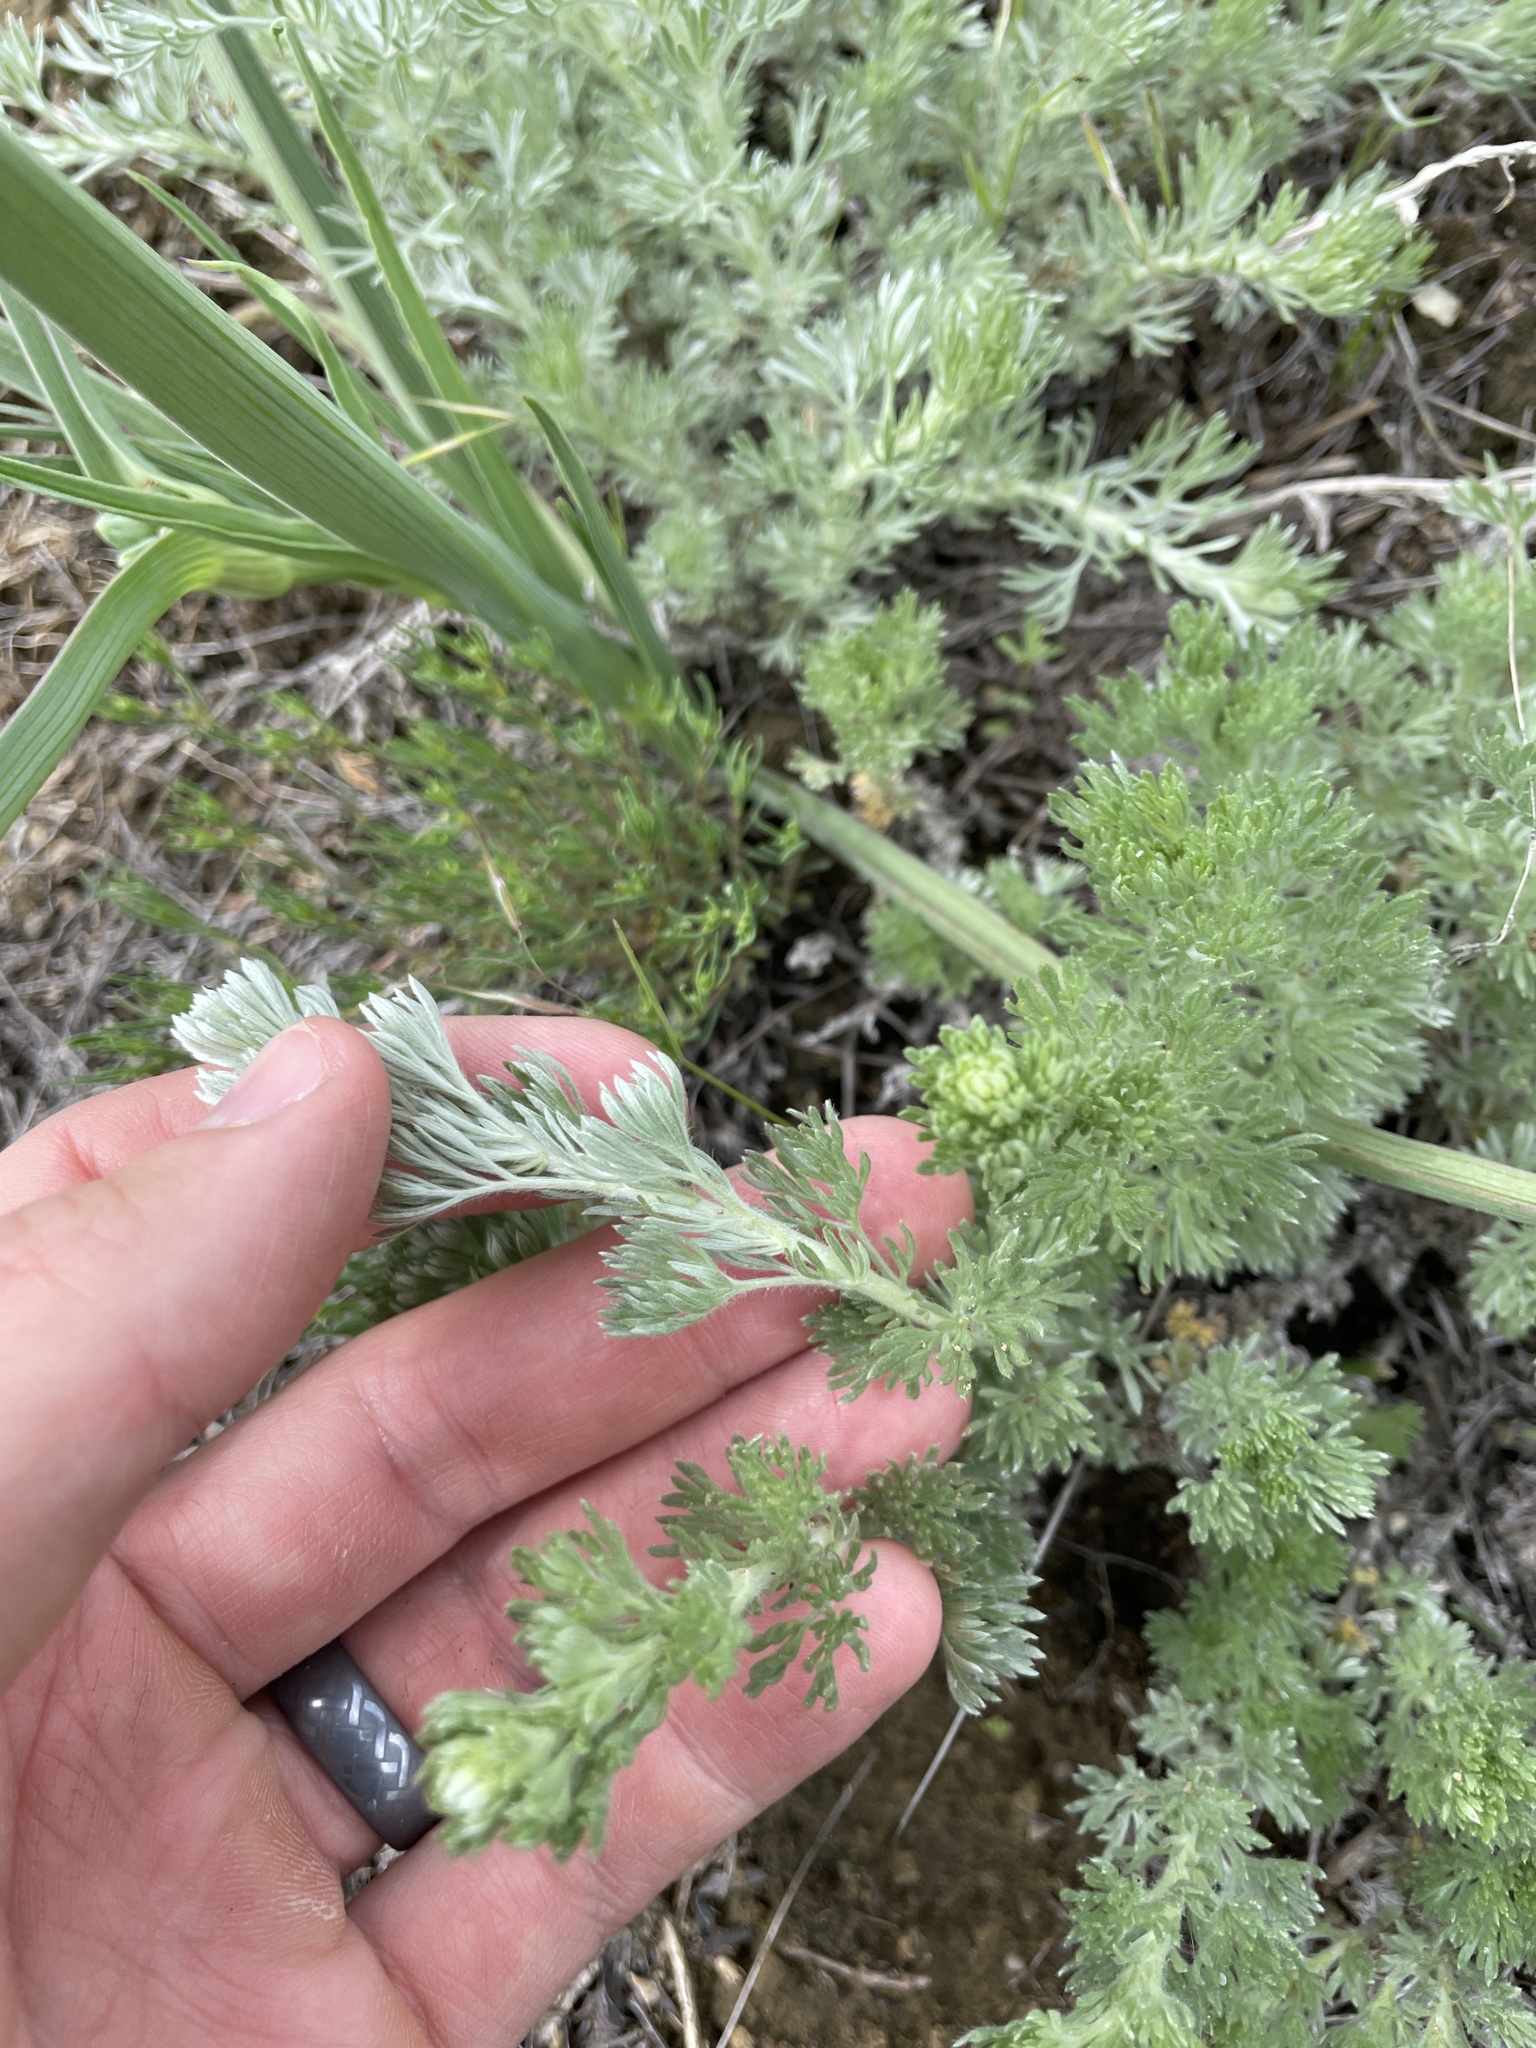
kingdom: Plantae
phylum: Tracheophyta
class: Magnoliopsida
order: Asterales
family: Asteraceae
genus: Artemisia
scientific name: Artemisia frigida
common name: Prairie sagewort
